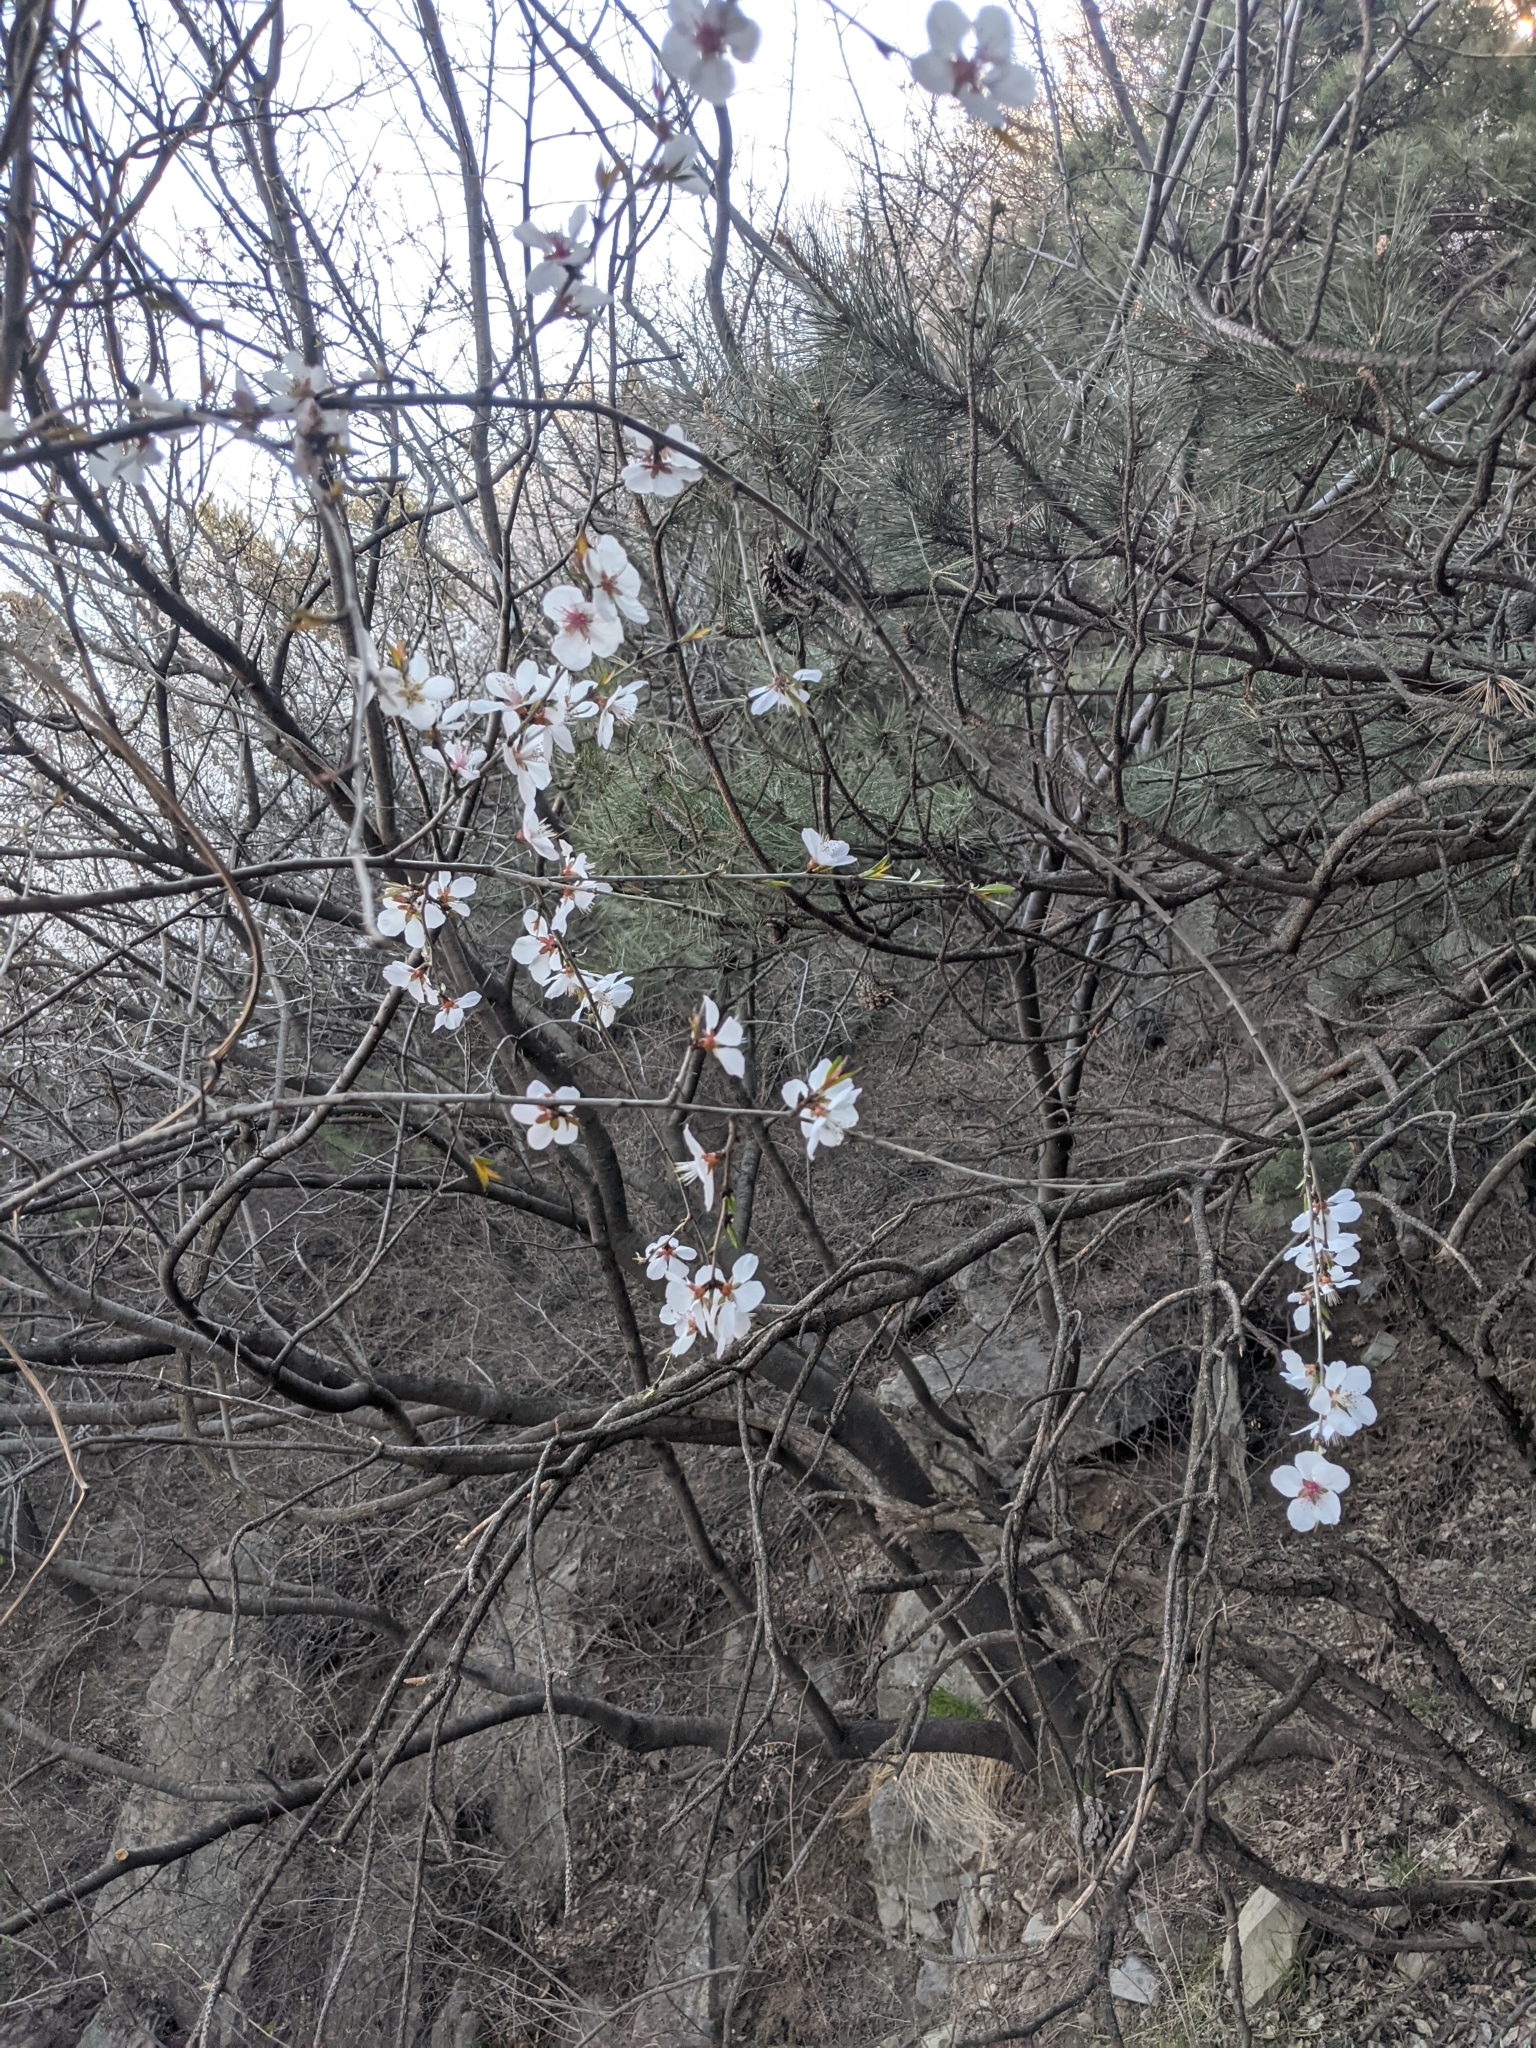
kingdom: Plantae
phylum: Tracheophyta
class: Magnoliopsida
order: Rosales
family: Rosaceae
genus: Prunus
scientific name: Prunus davidiana
